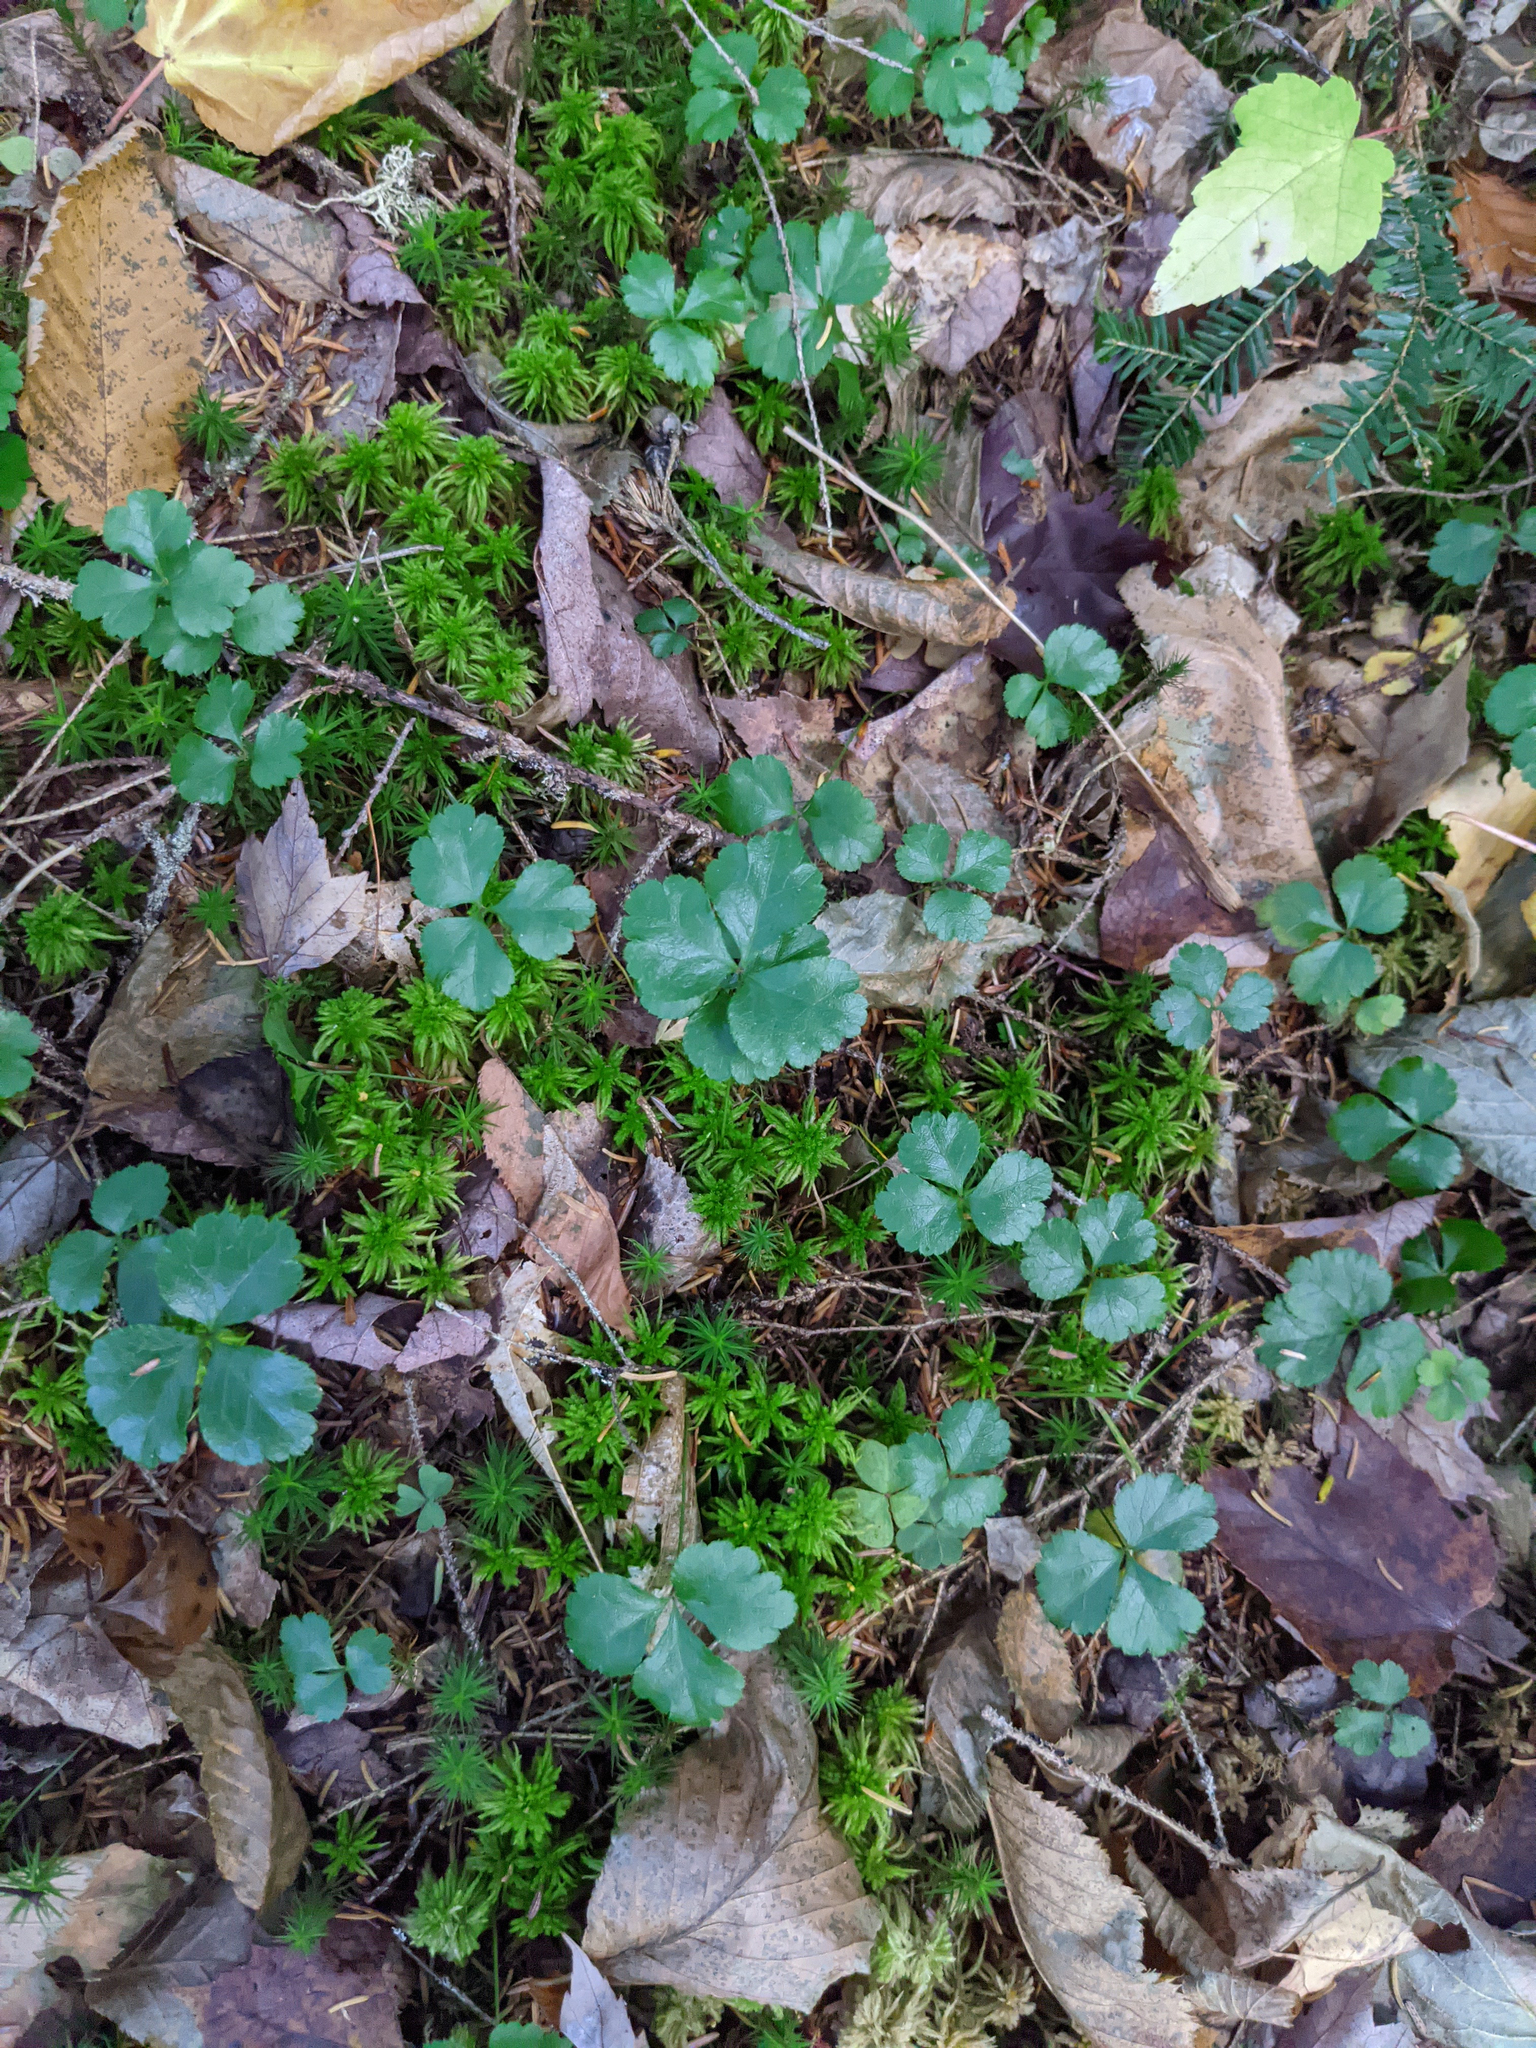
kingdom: Plantae
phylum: Tracheophyta
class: Magnoliopsida
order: Ranunculales
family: Ranunculaceae
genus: Coptis
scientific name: Coptis trifolia
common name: Canker-root
